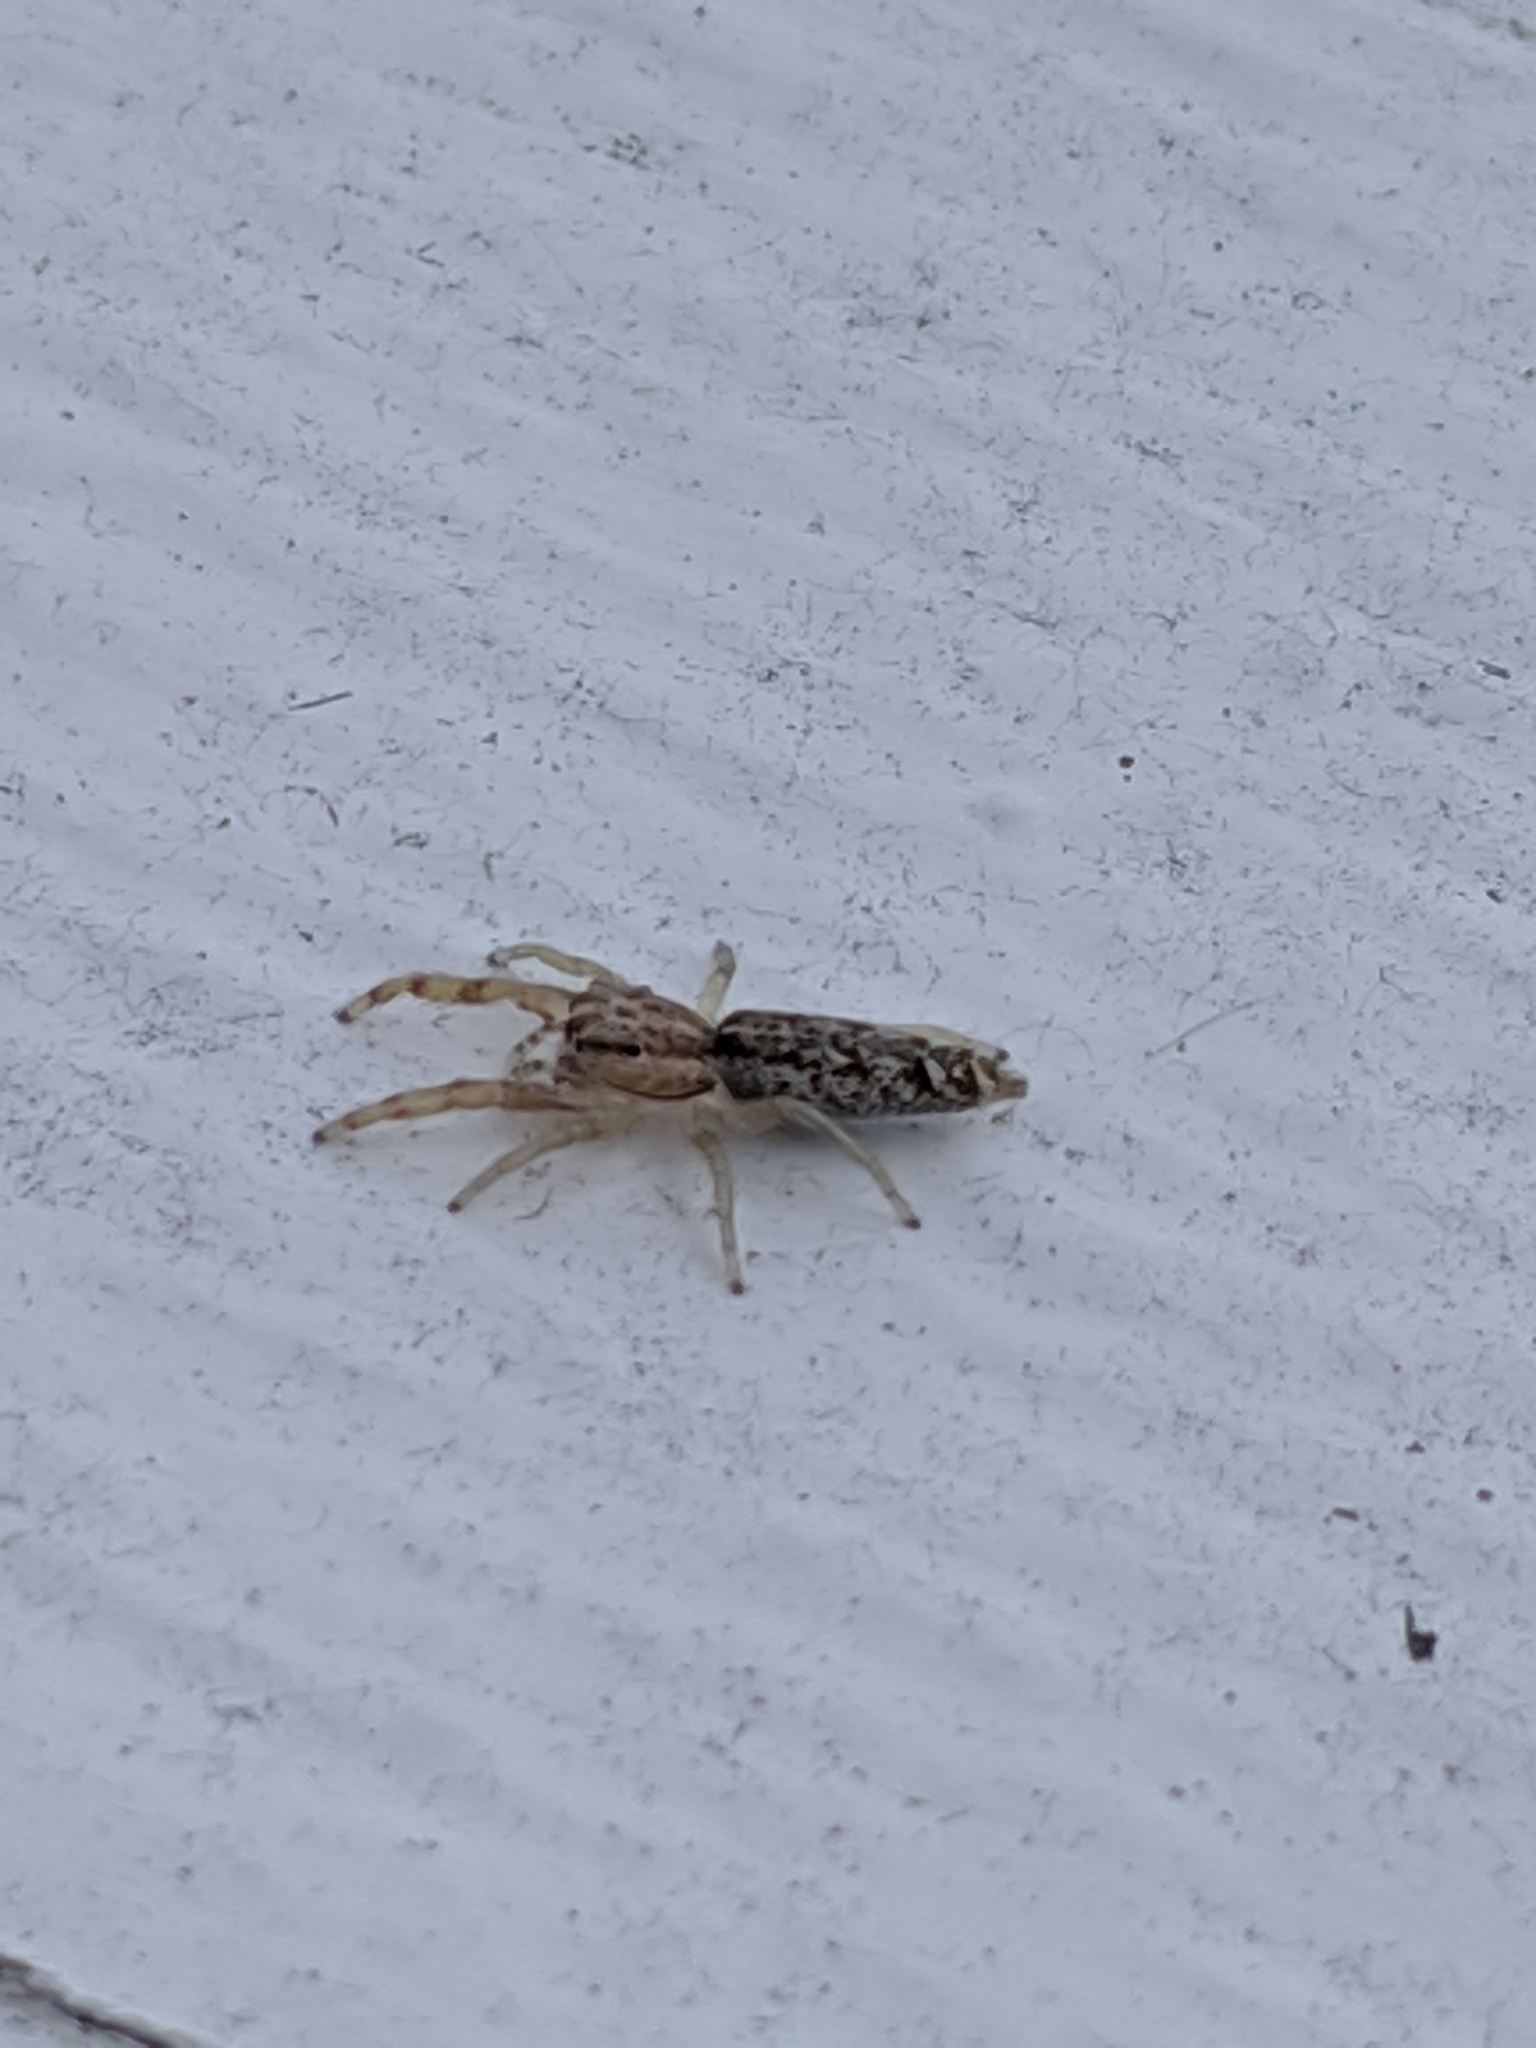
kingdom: Animalia
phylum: Arthropoda
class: Arachnida
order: Araneae
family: Salticidae
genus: Hentzia
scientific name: Hentzia
